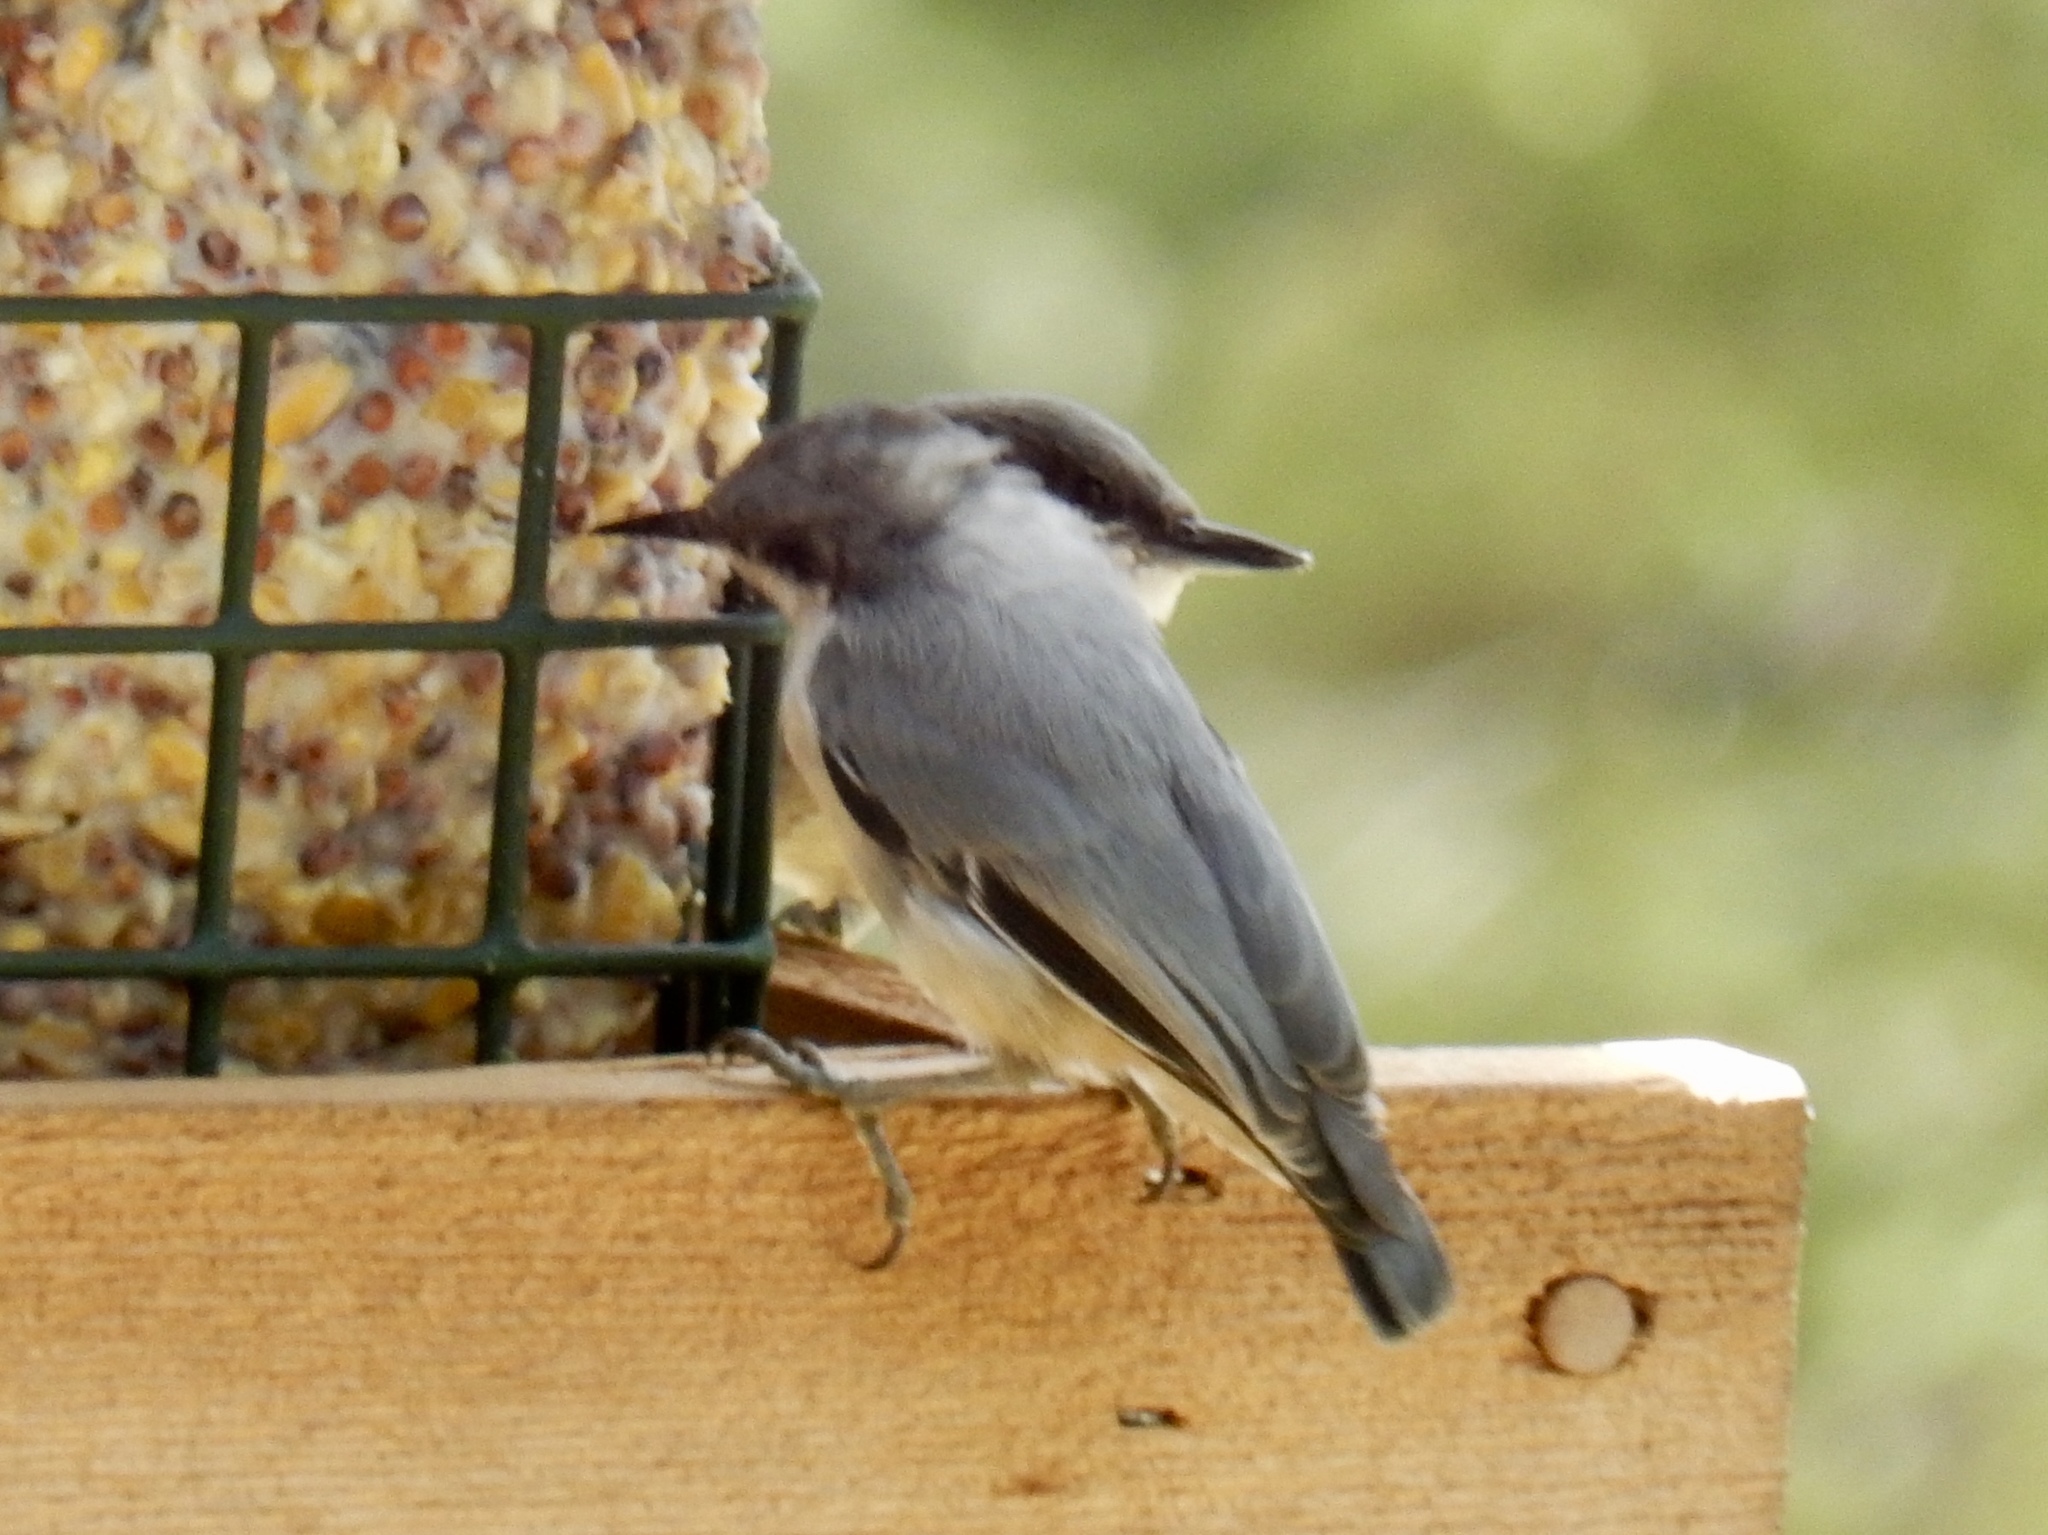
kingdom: Animalia
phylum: Chordata
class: Aves
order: Passeriformes
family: Sittidae
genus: Sitta
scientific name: Sitta pygmaea
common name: Pygmy nuthatch
